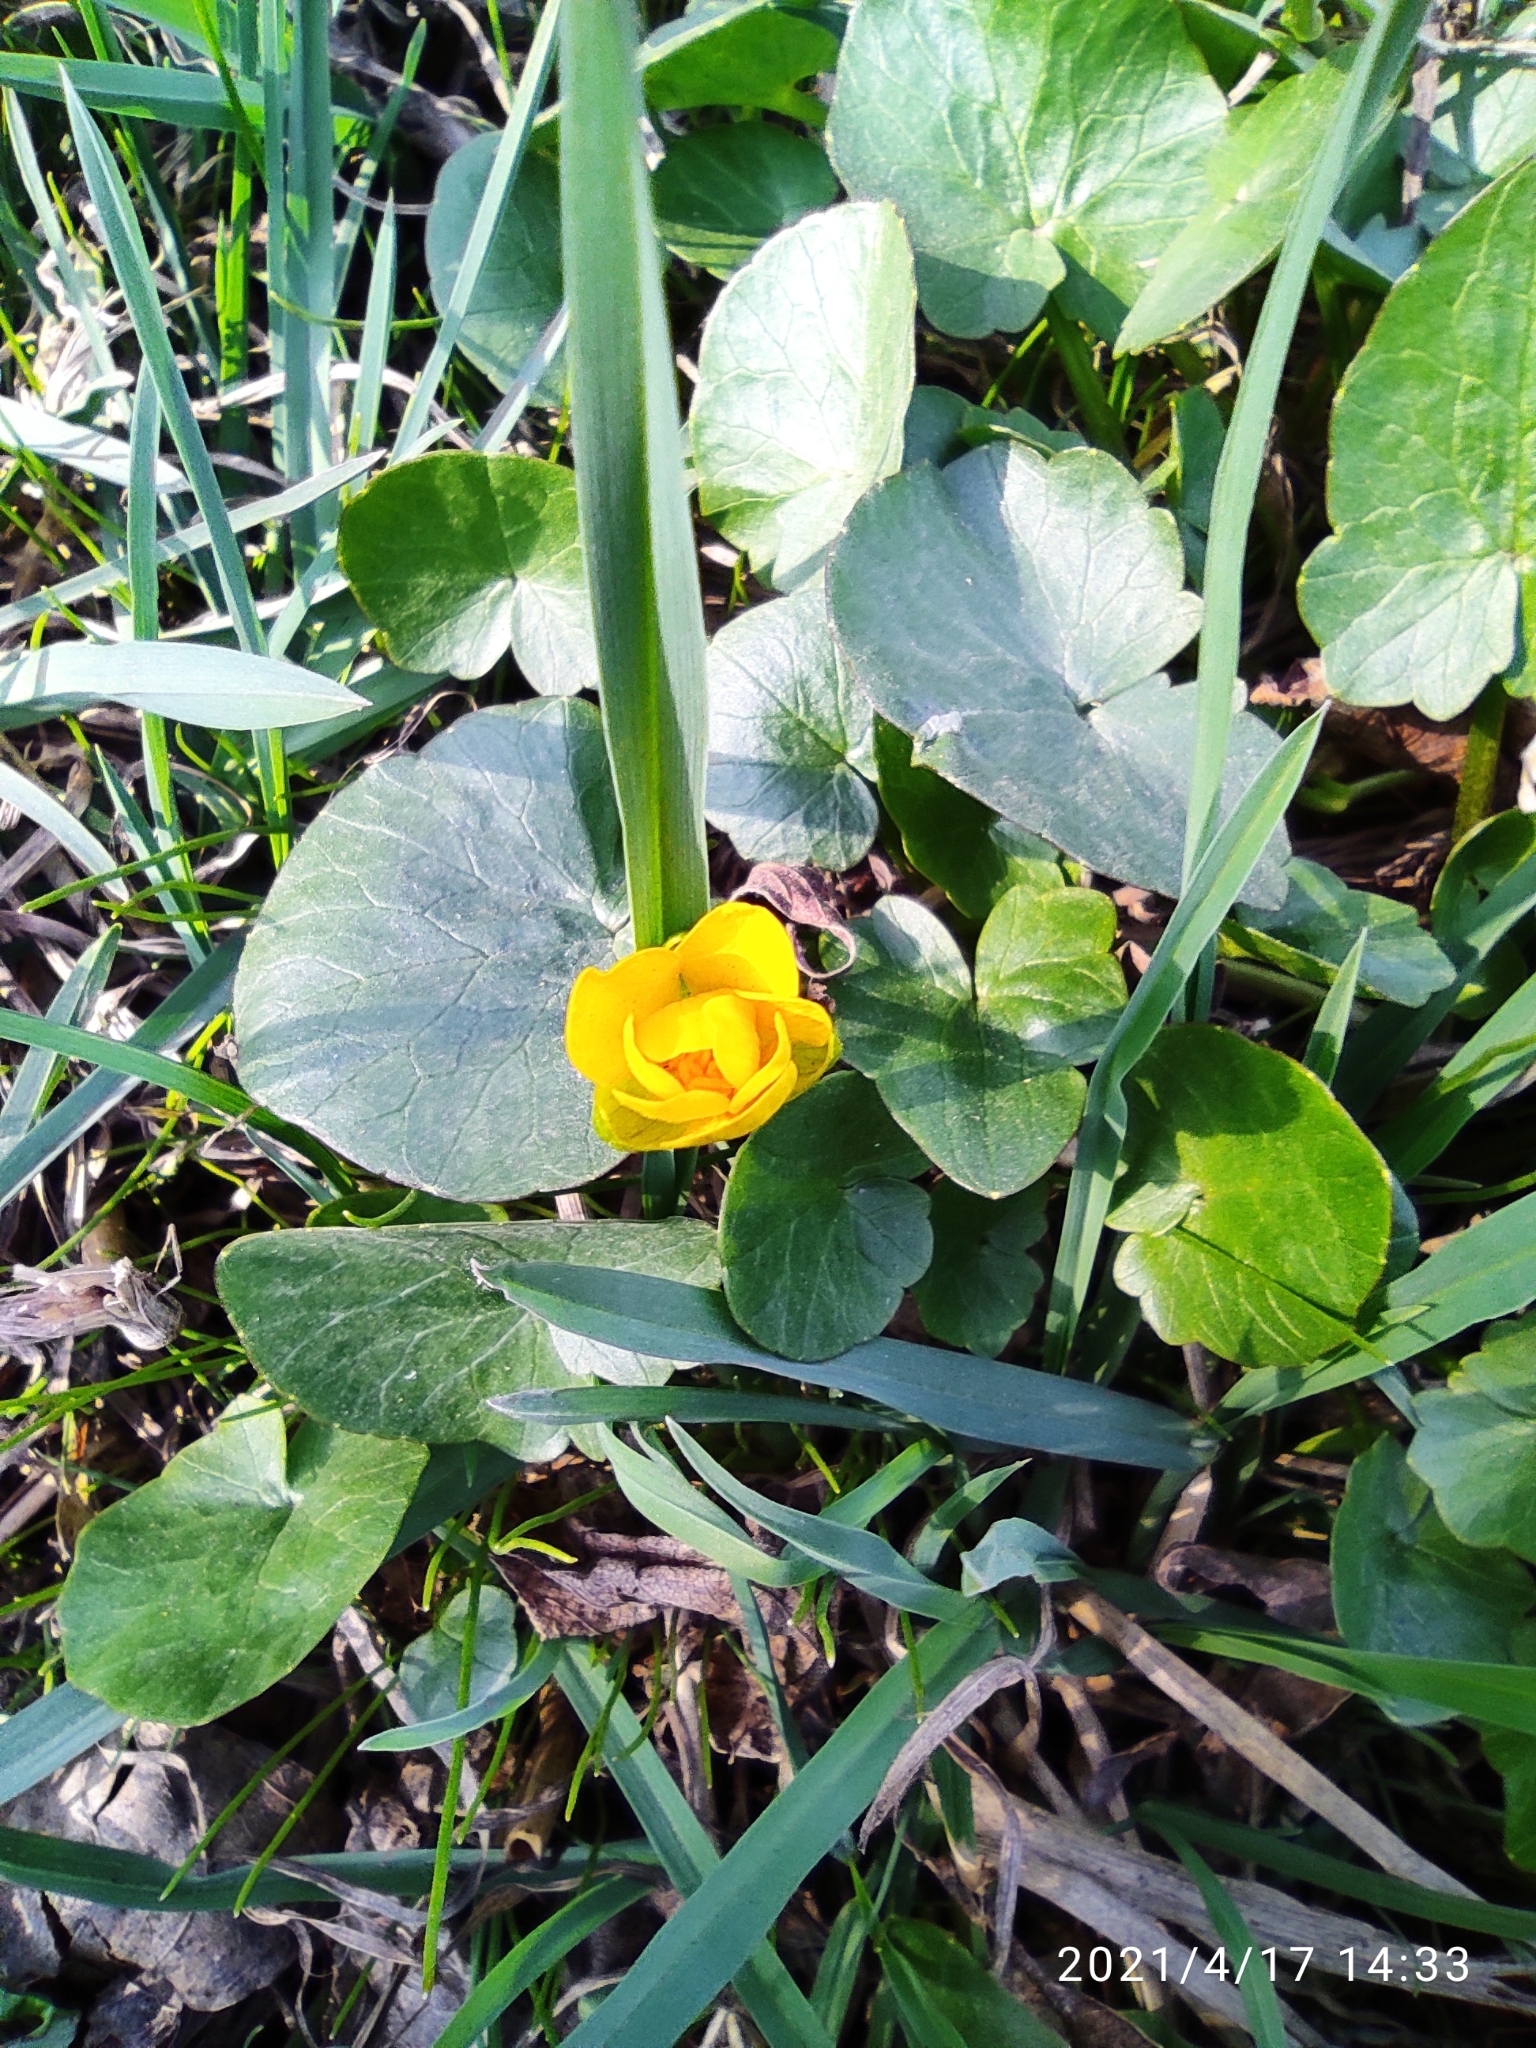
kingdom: Plantae
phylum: Tracheophyta
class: Magnoliopsida
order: Ranunculales
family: Ranunculaceae
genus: Ficaria
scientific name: Ficaria verna
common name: Lesser celandine
